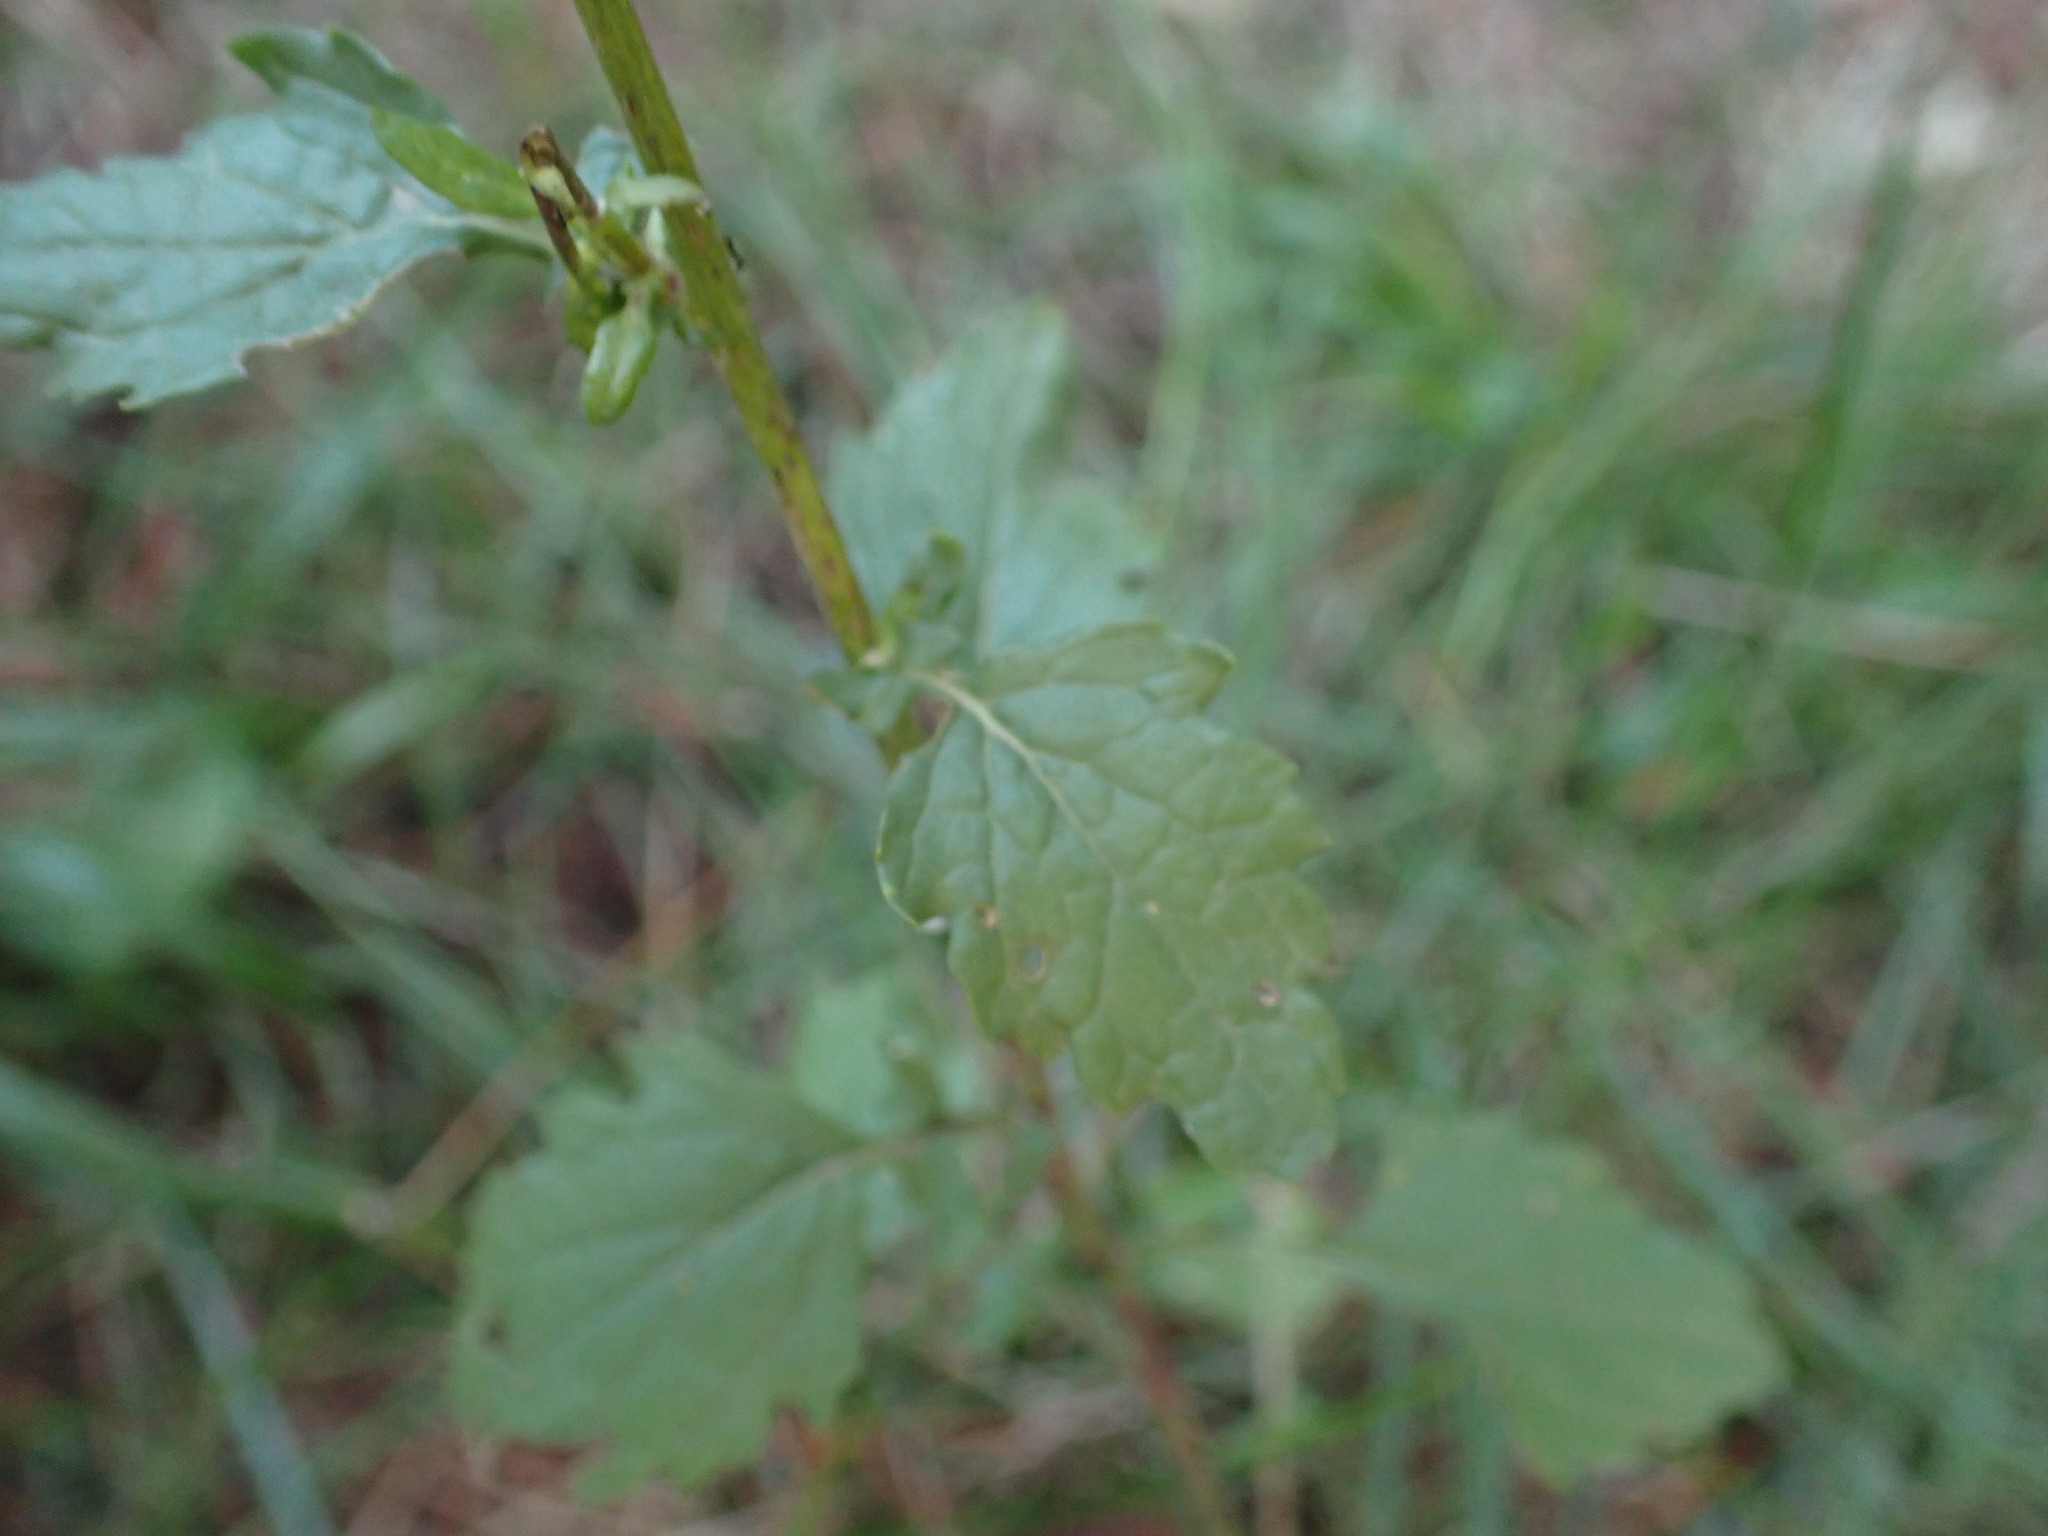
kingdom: Plantae
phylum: Tracheophyta
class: Magnoliopsida
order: Asterales
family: Asteraceae
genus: Jacobaea
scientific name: Jacobaea erratica
